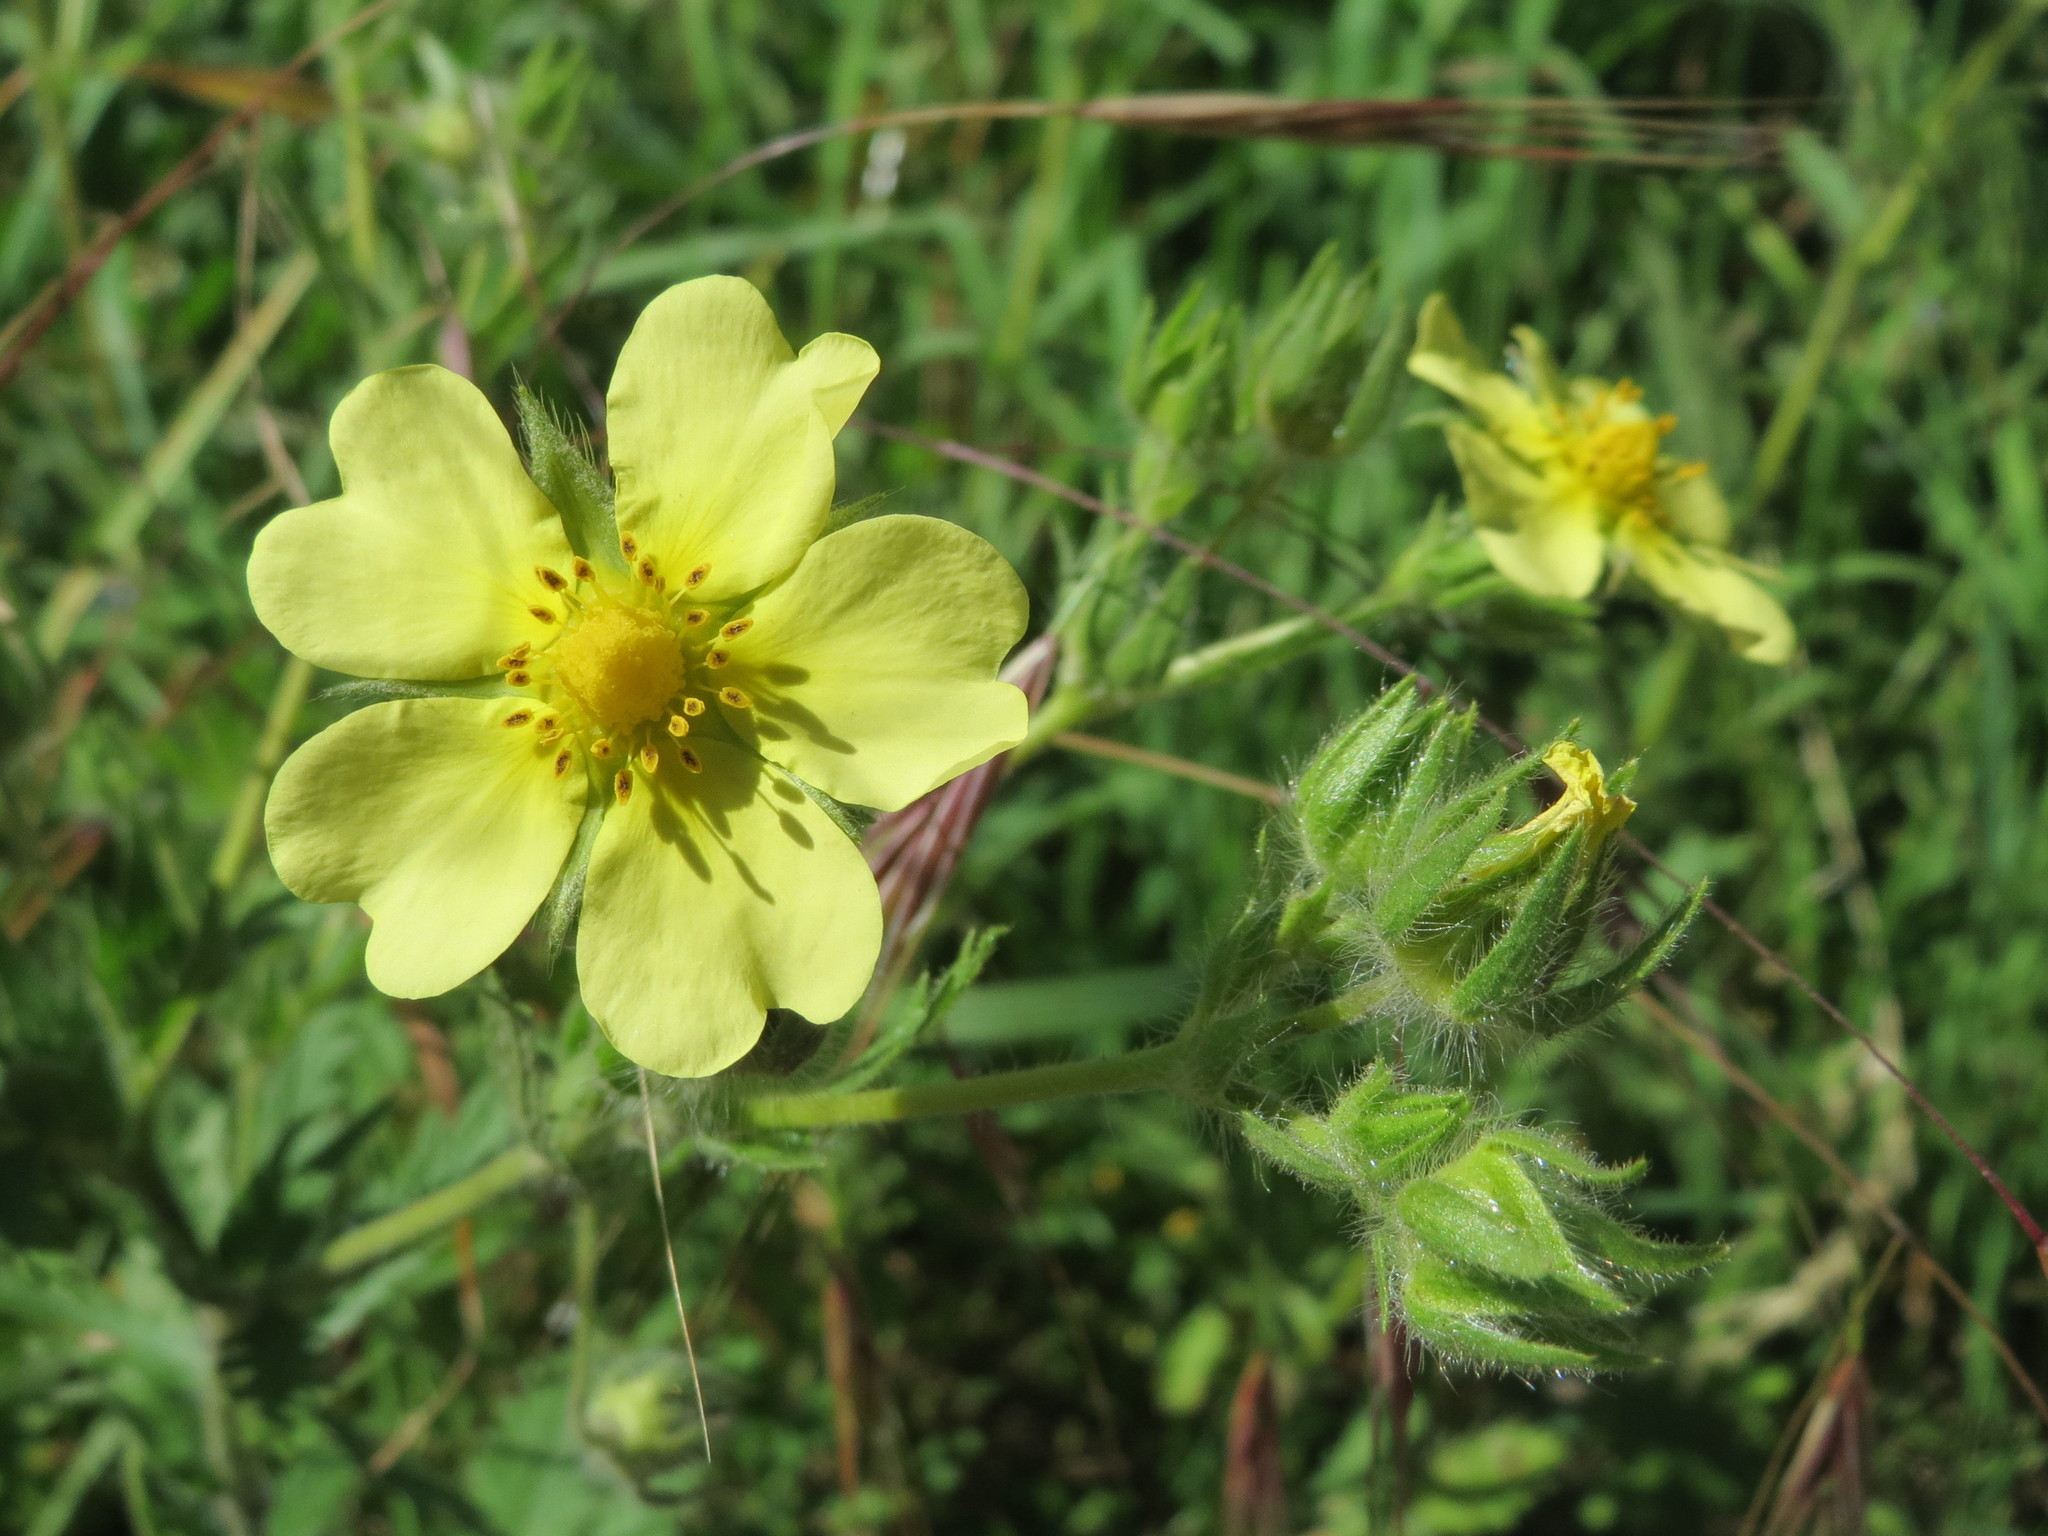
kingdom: Plantae
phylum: Tracheophyta
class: Magnoliopsida
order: Rosales
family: Rosaceae
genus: Potentilla
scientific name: Potentilla recta
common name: Sulphur cinquefoil
